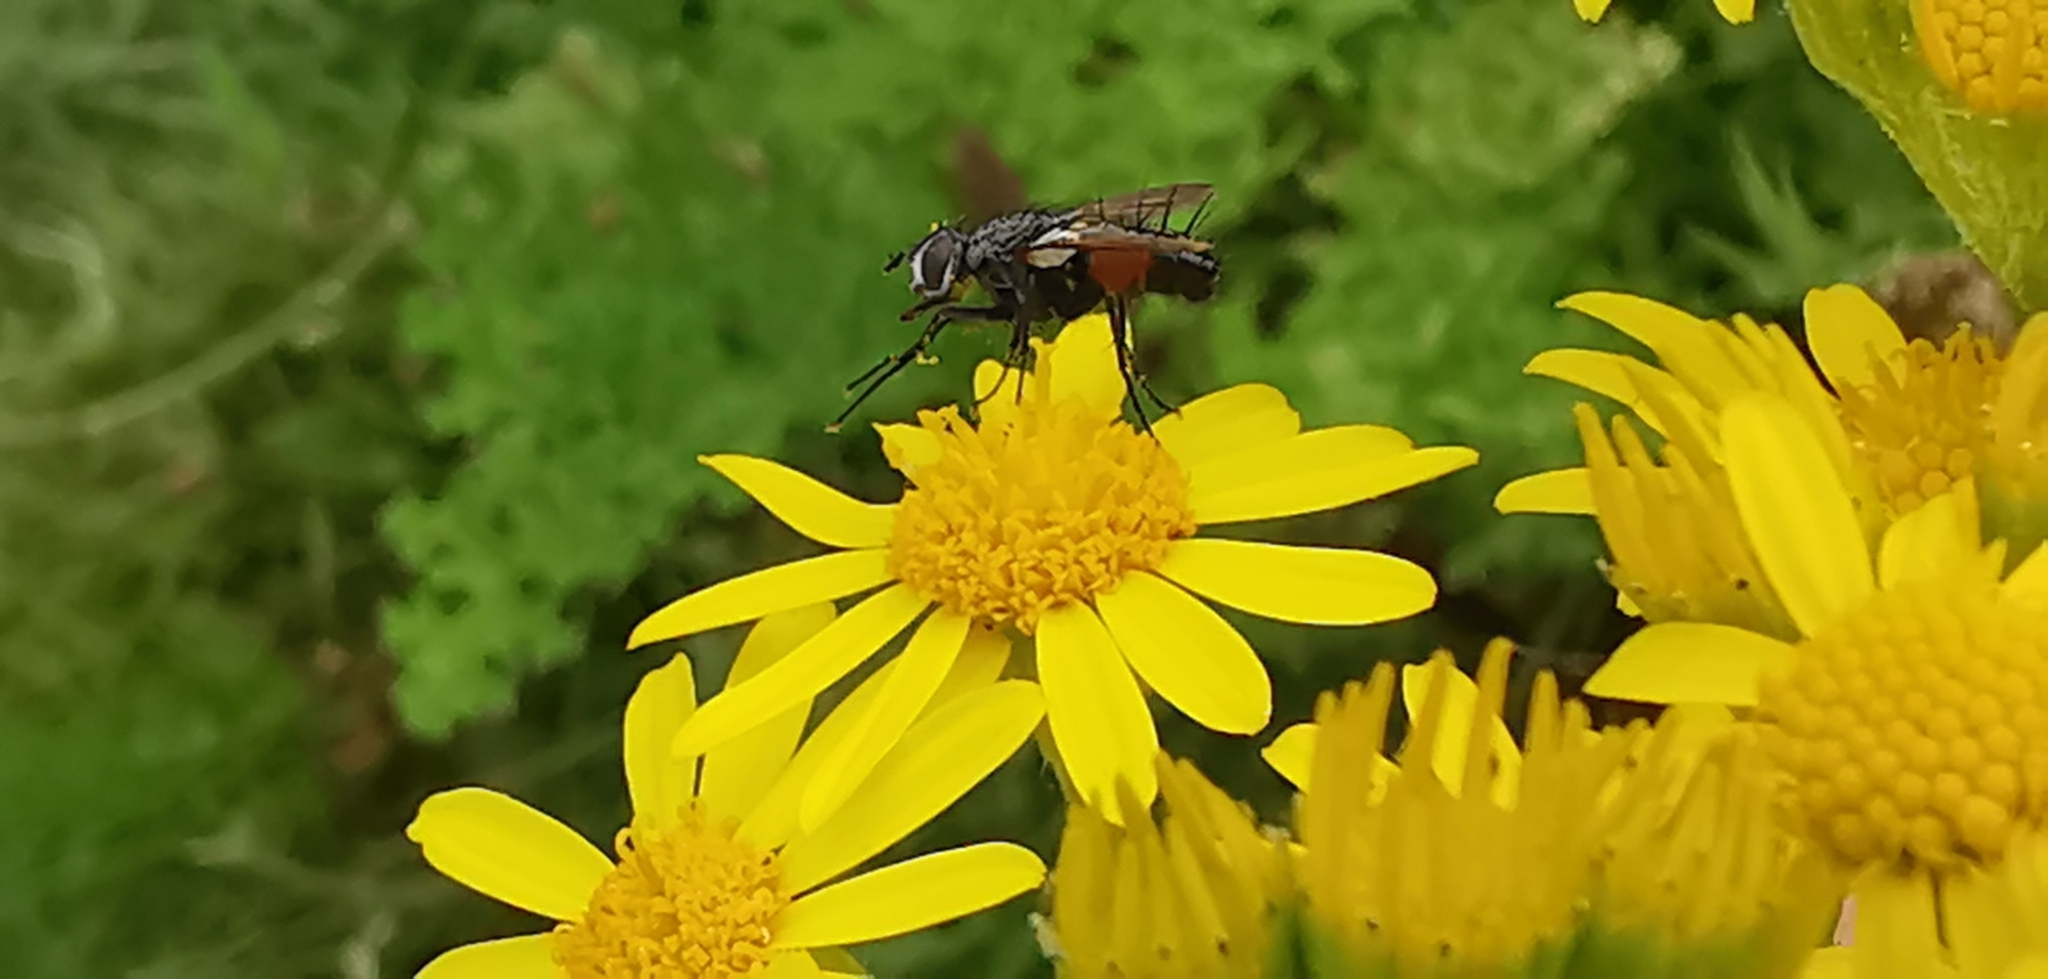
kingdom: Animalia
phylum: Arthropoda
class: Insecta
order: Diptera
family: Tachinidae
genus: Eriothrix
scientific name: Eriothrix rufomaculatus
